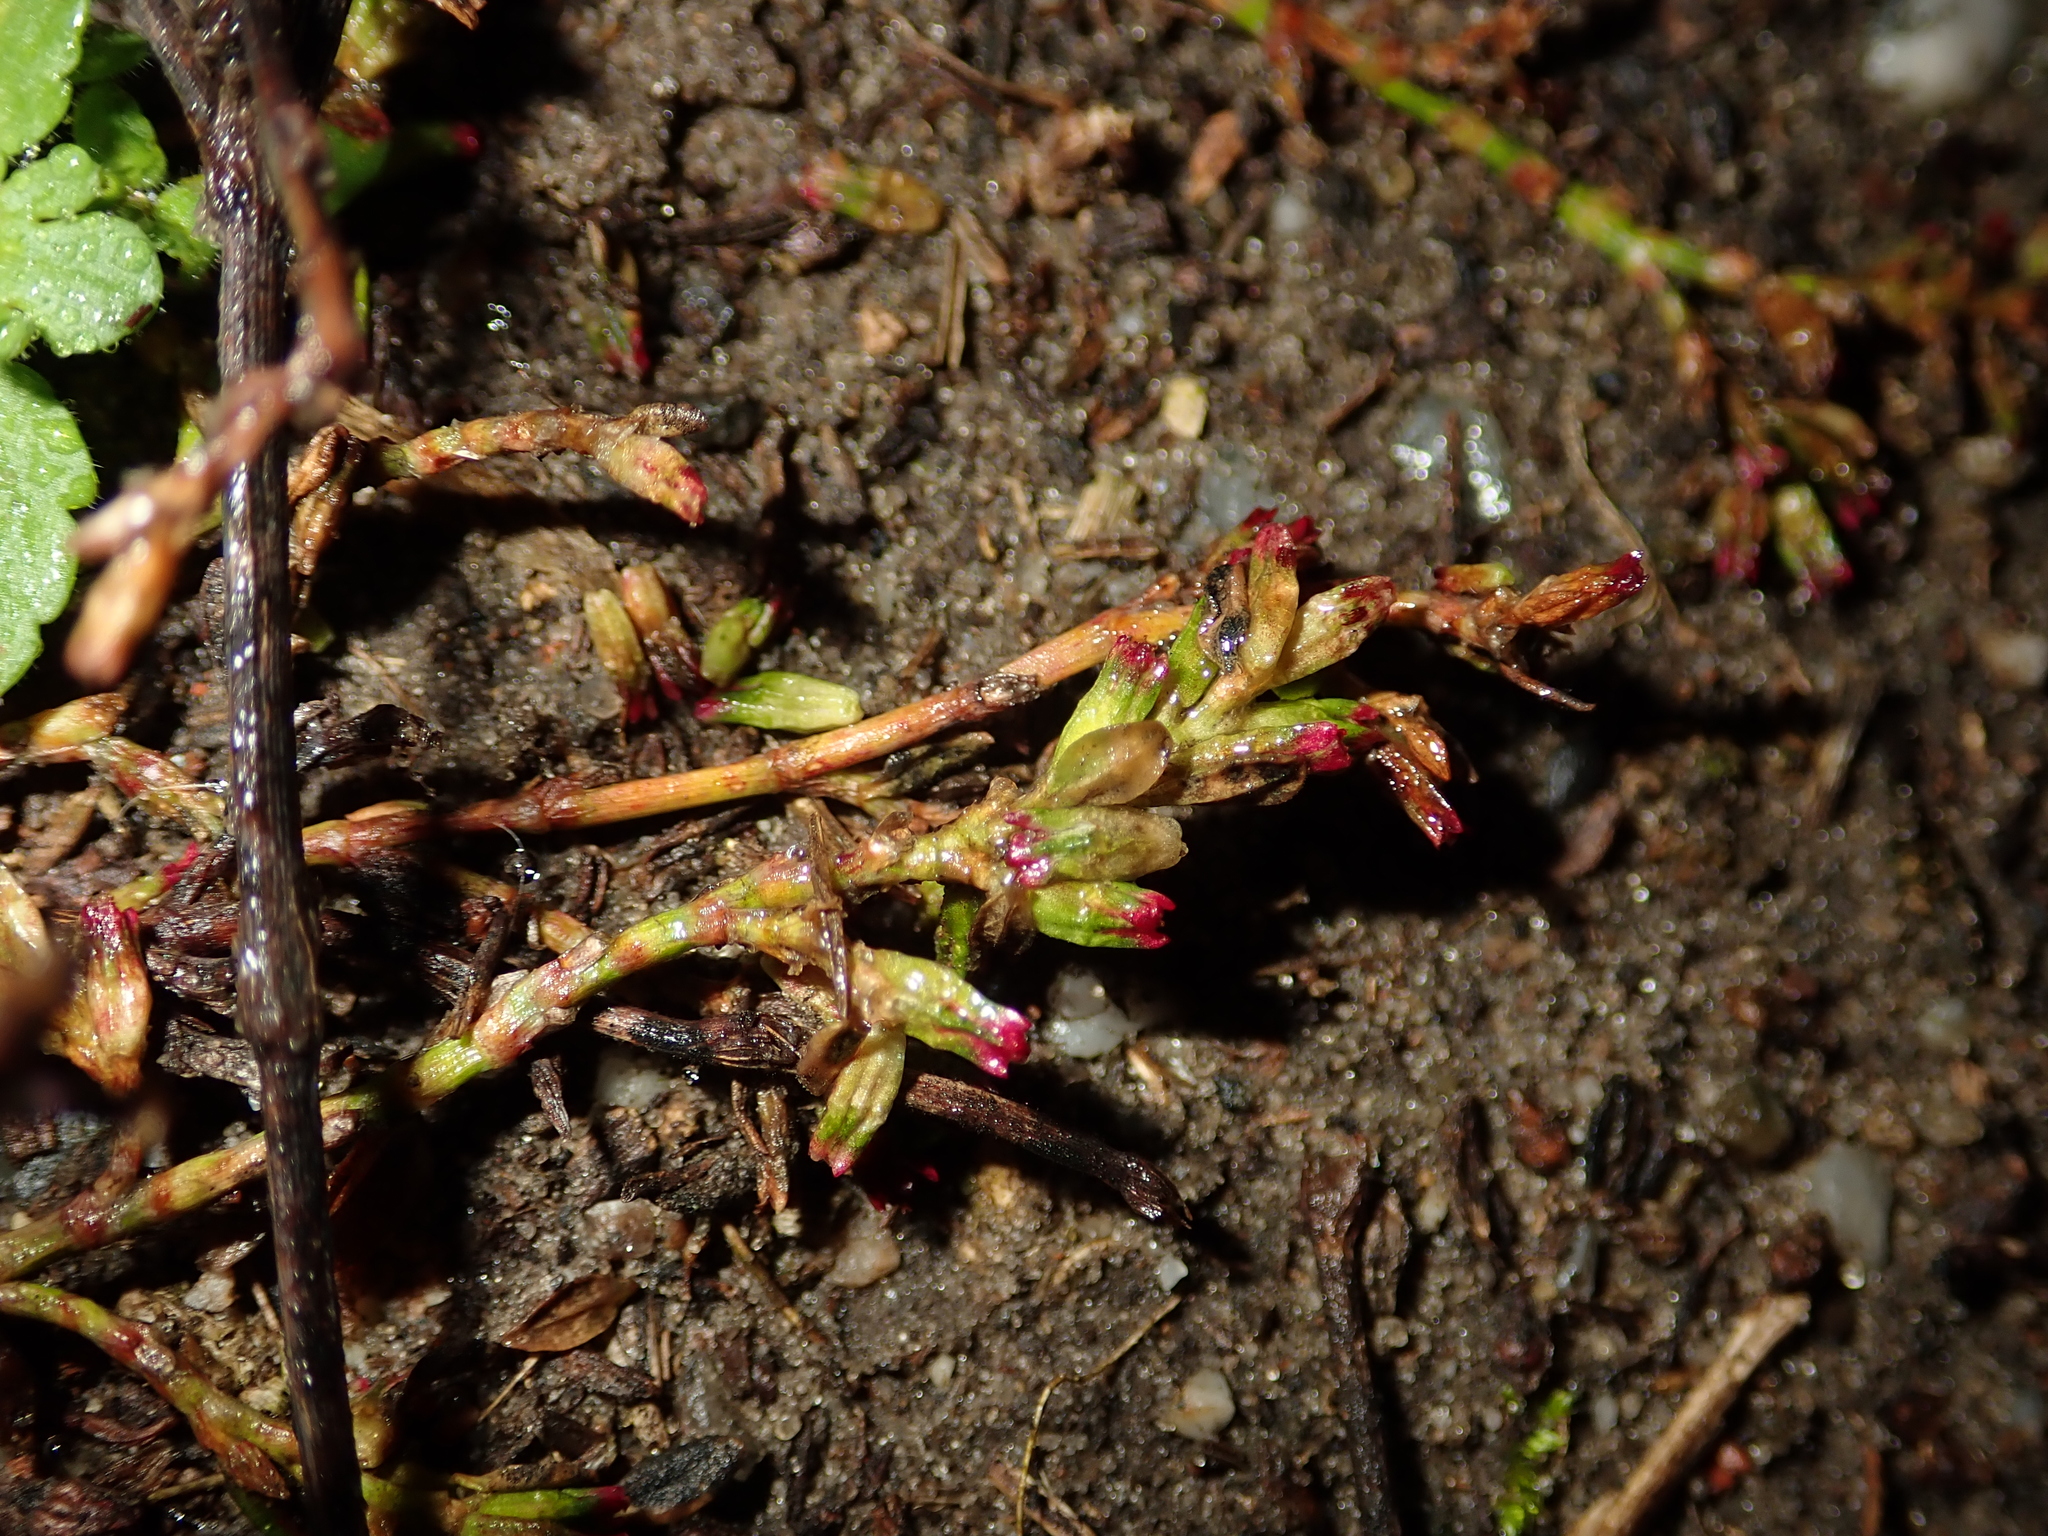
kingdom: Plantae
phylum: Tracheophyta
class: Magnoliopsida
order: Caryophyllales
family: Polygonaceae
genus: Polygonum
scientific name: Polygonum aviculare
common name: Prostrate knotweed
